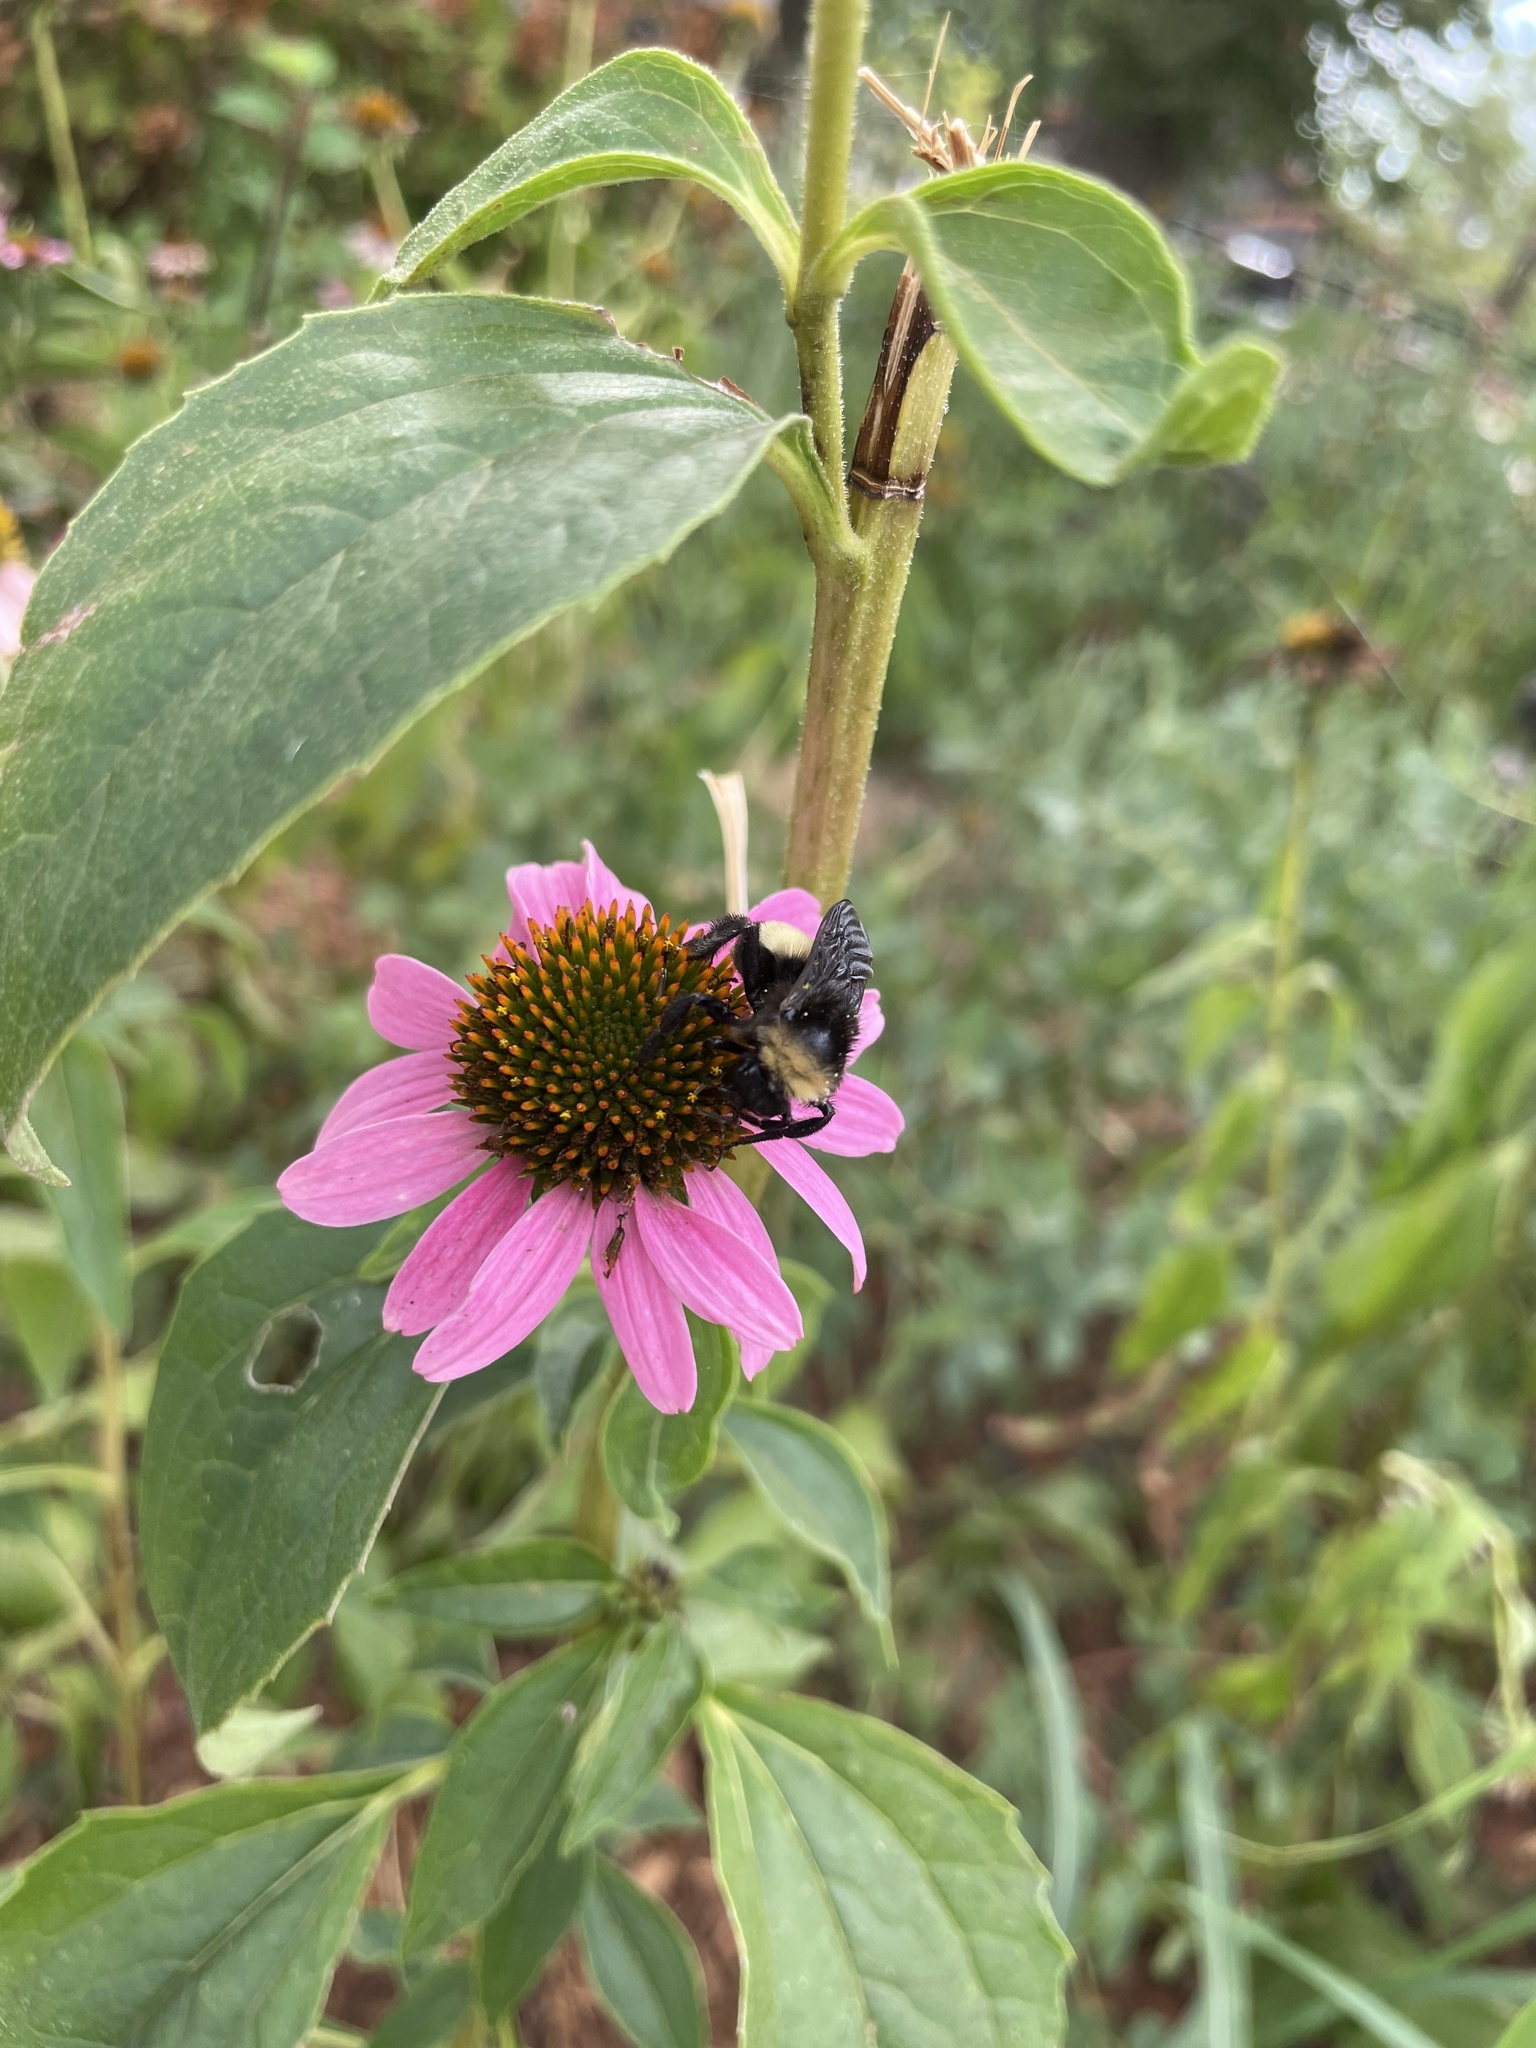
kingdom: Animalia
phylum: Arthropoda
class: Insecta
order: Hymenoptera
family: Apidae
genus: Bombus
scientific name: Bombus pensylvanicus
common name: Bumble bee
